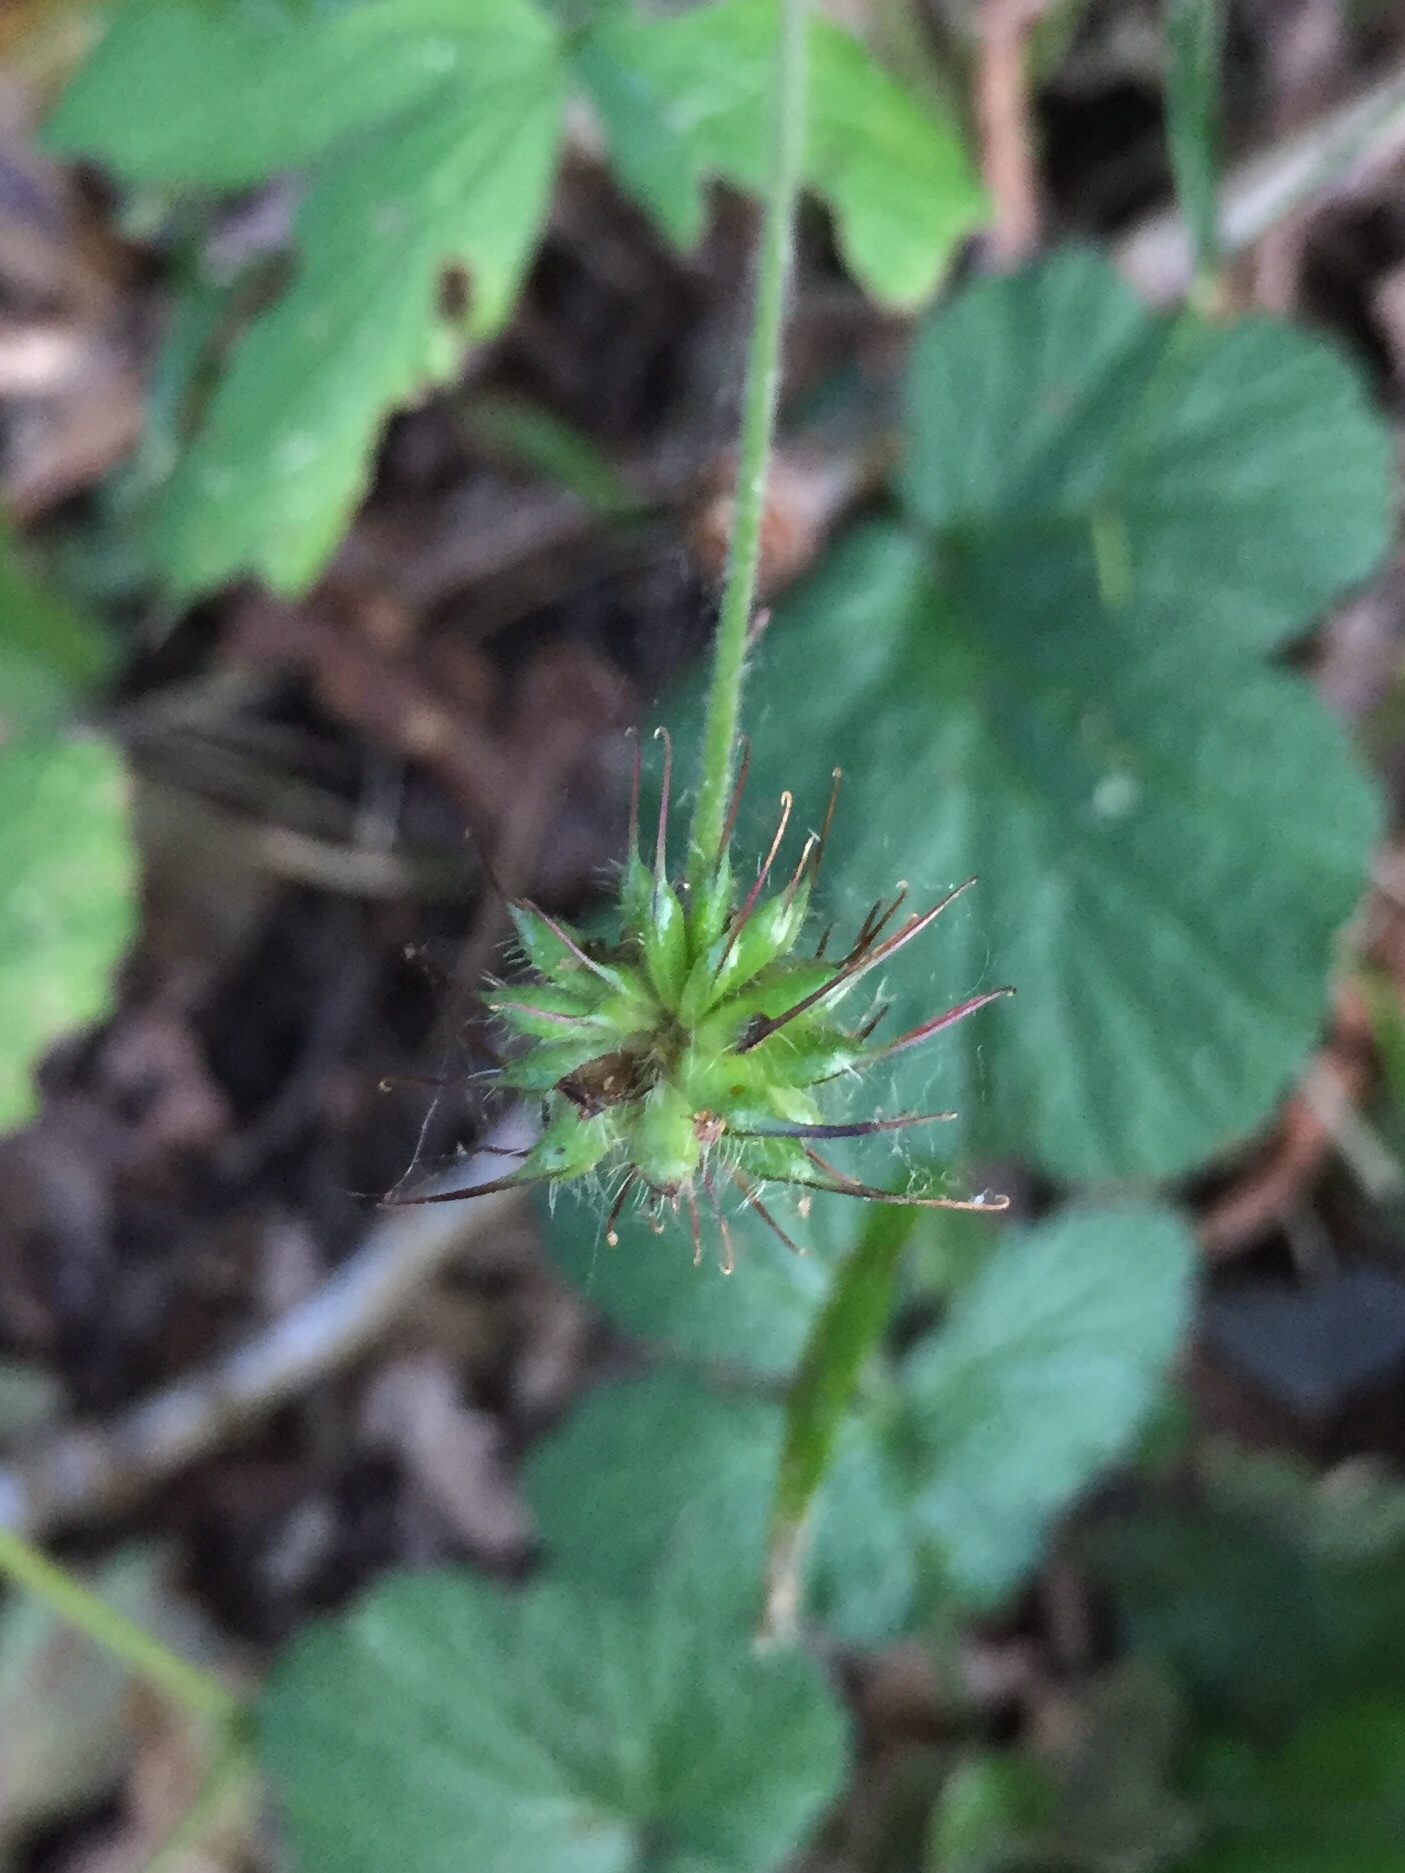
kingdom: Plantae
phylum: Tracheophyta
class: Magnoliopsida
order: Rosales
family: Rosaceae
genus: Geum
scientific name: Geum urbanum
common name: Wood avens
